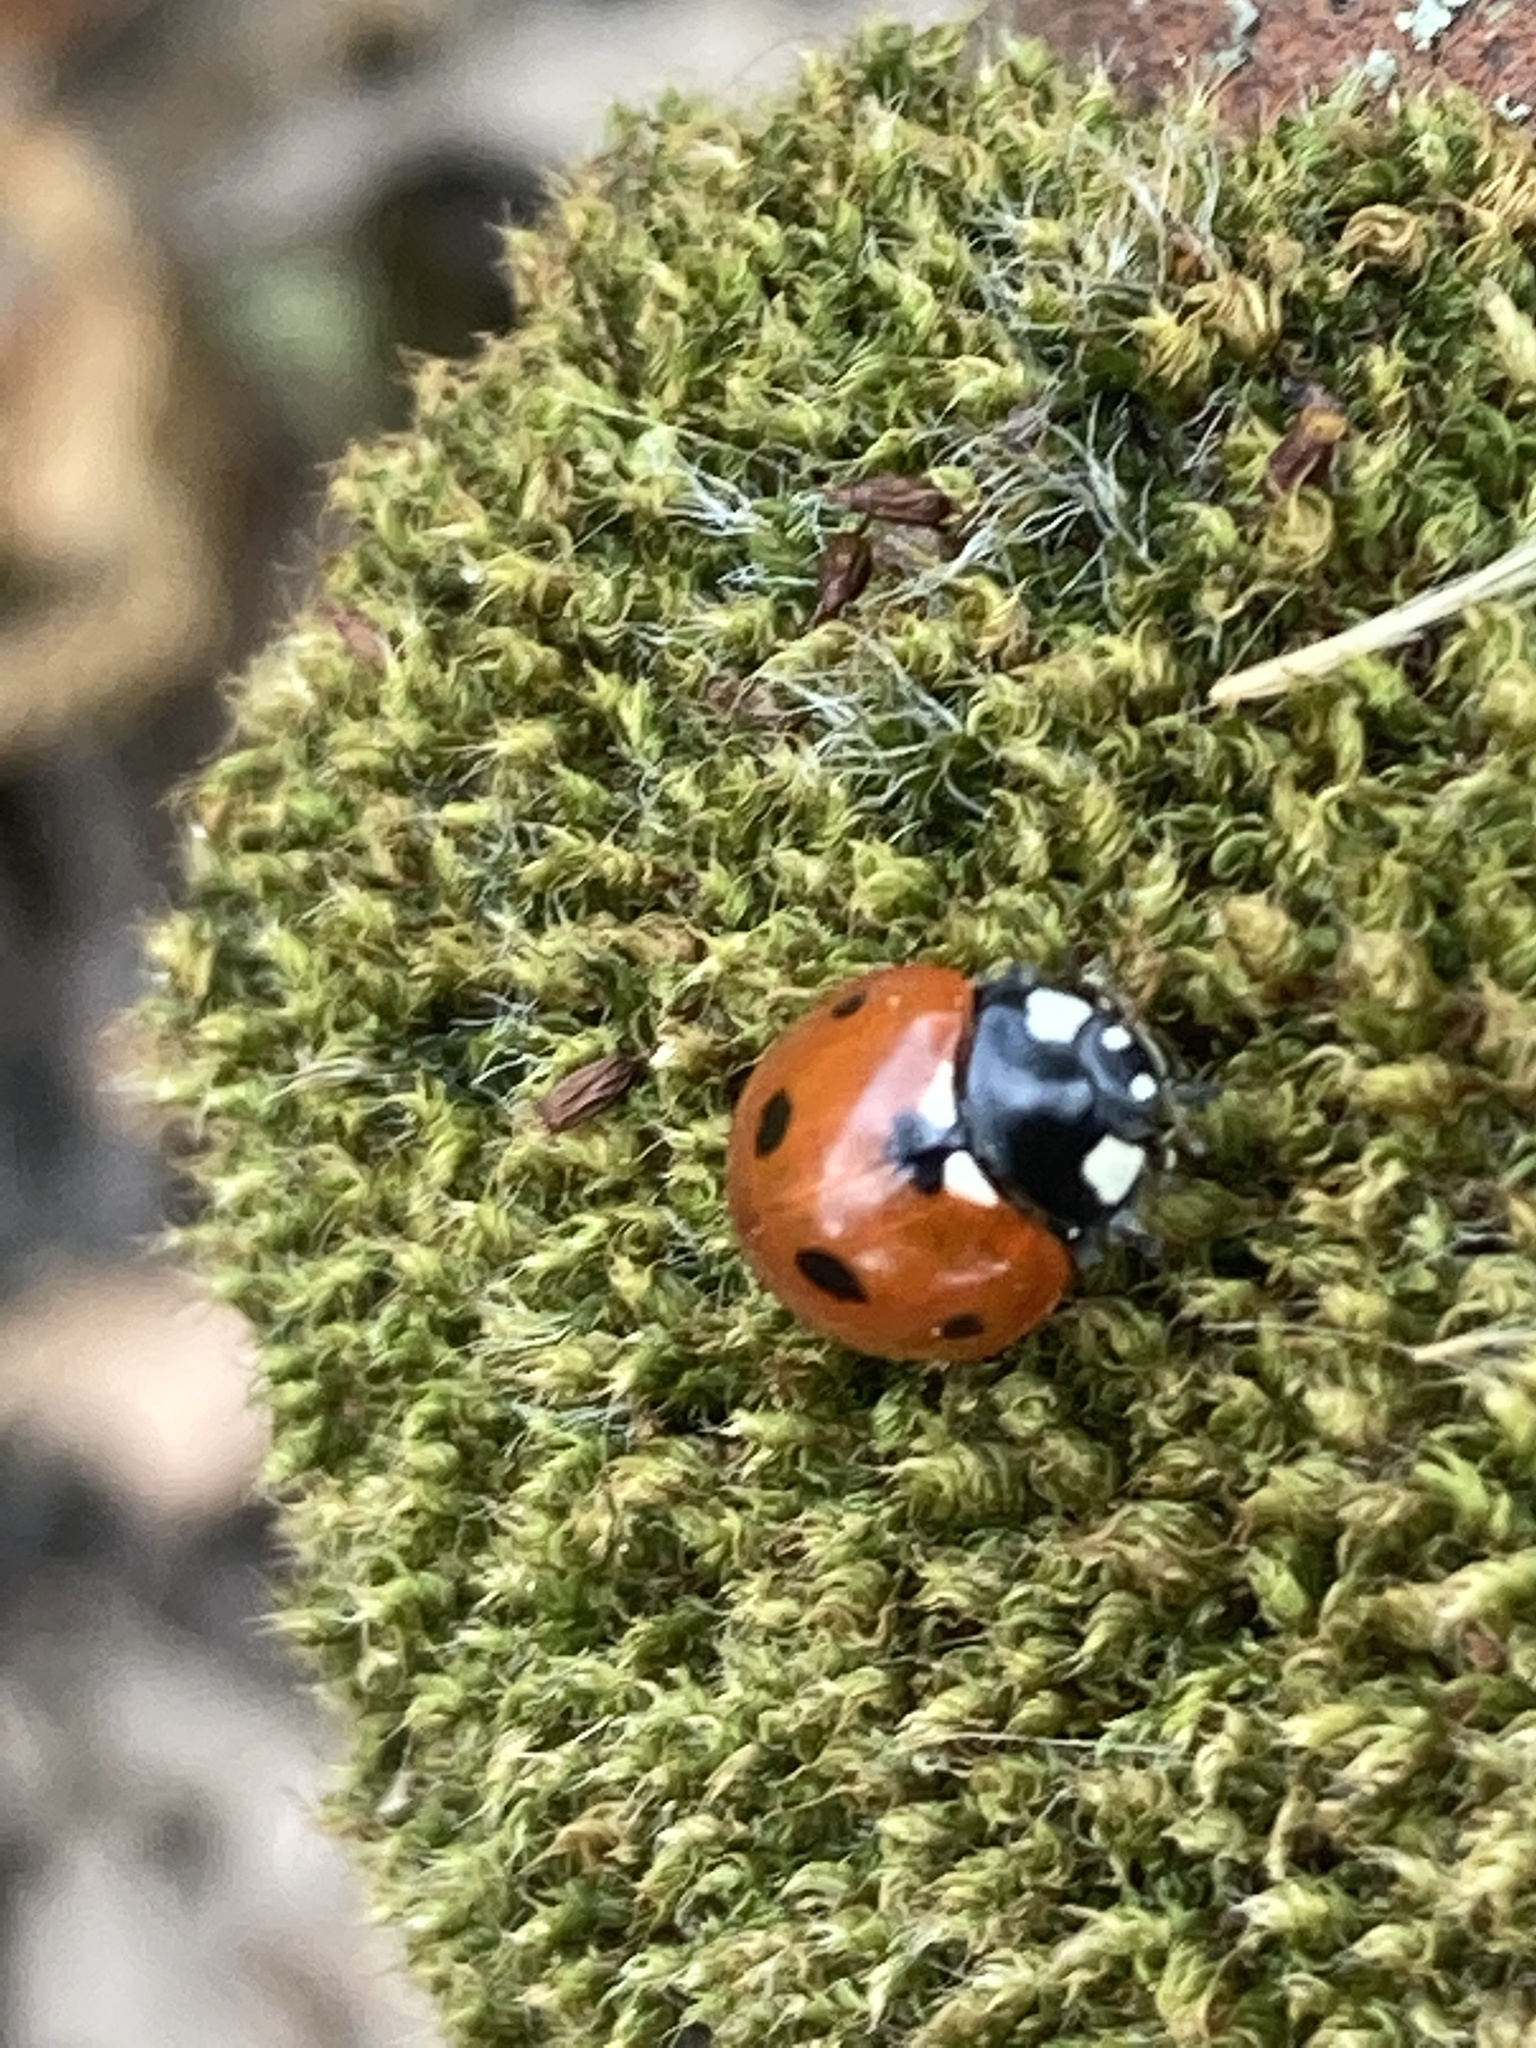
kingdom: Animalia
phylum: Arthropoda
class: Insecta
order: Coleoptera
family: Coccinellidae
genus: Coccinella
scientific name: Coccinella septempunctata
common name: Sevenspotted lady beetle
